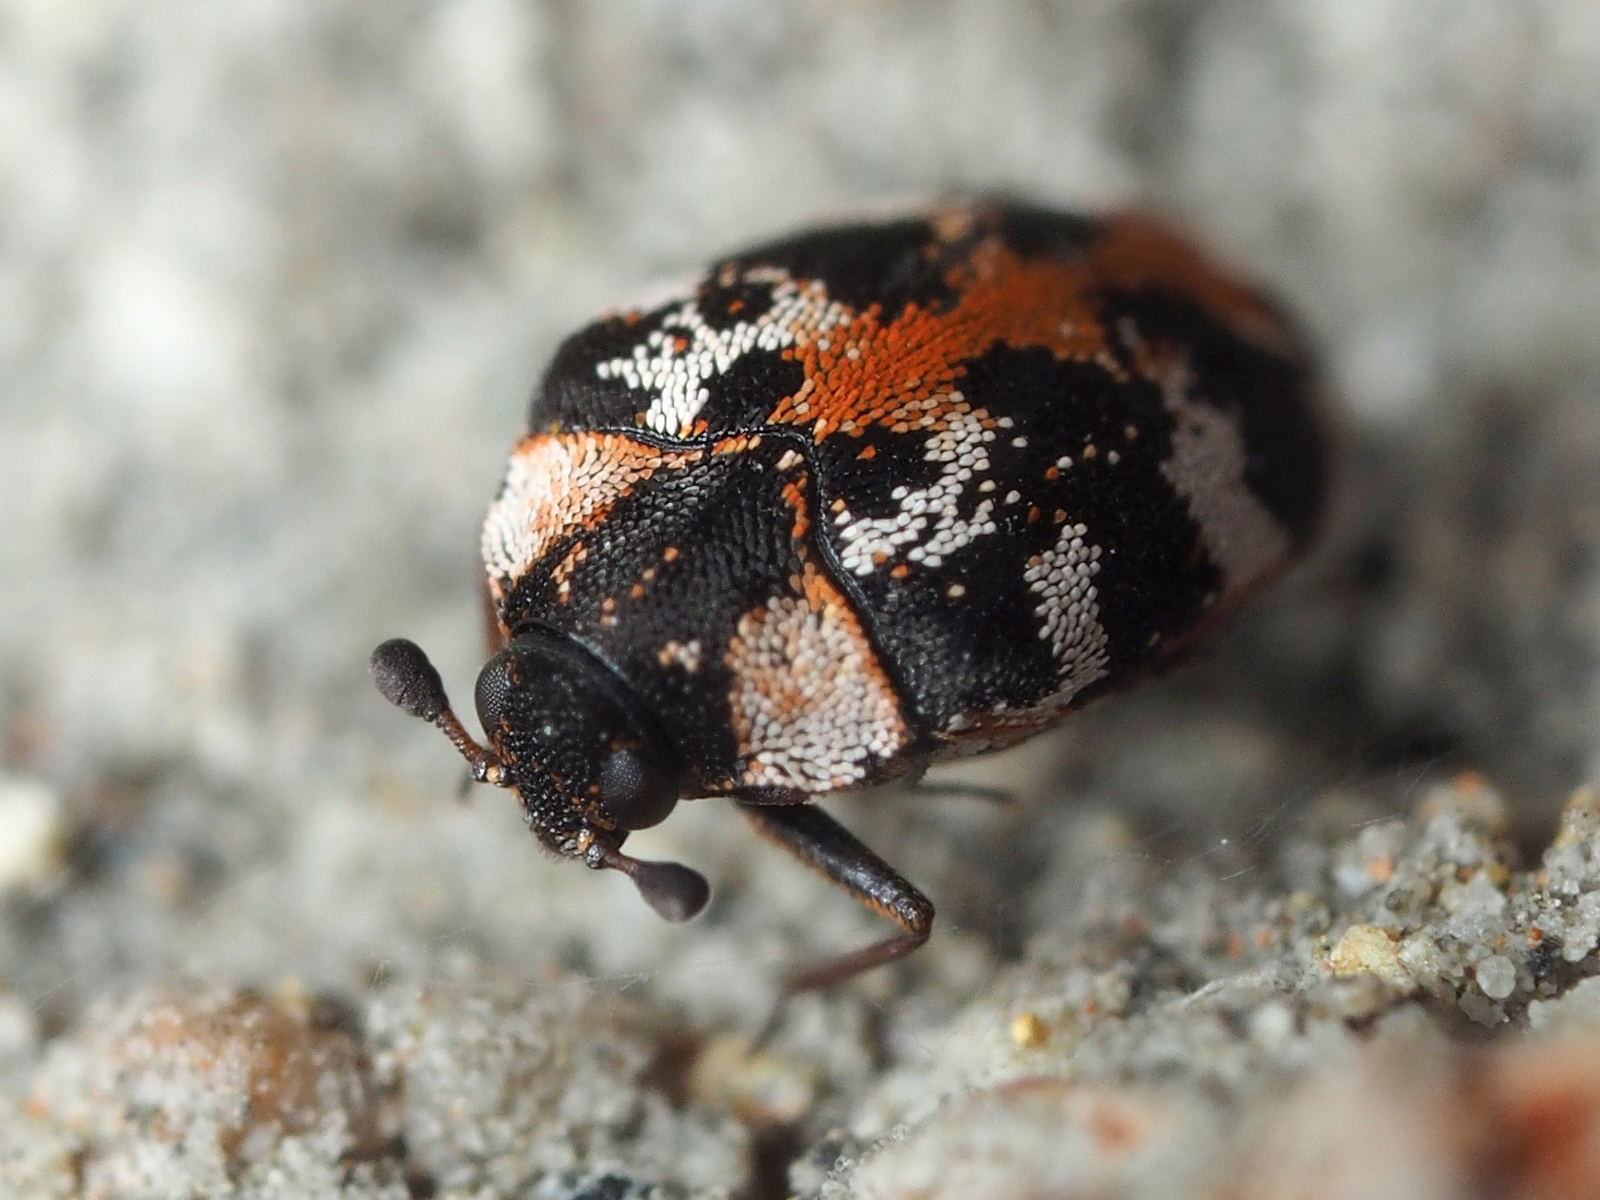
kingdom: Animalia
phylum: Arthropoda
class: Insecta
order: Coleoptera
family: Dermestidae
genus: Anthrenus
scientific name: Anthrenus scrophulariae
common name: Buffalo carpet beetle
